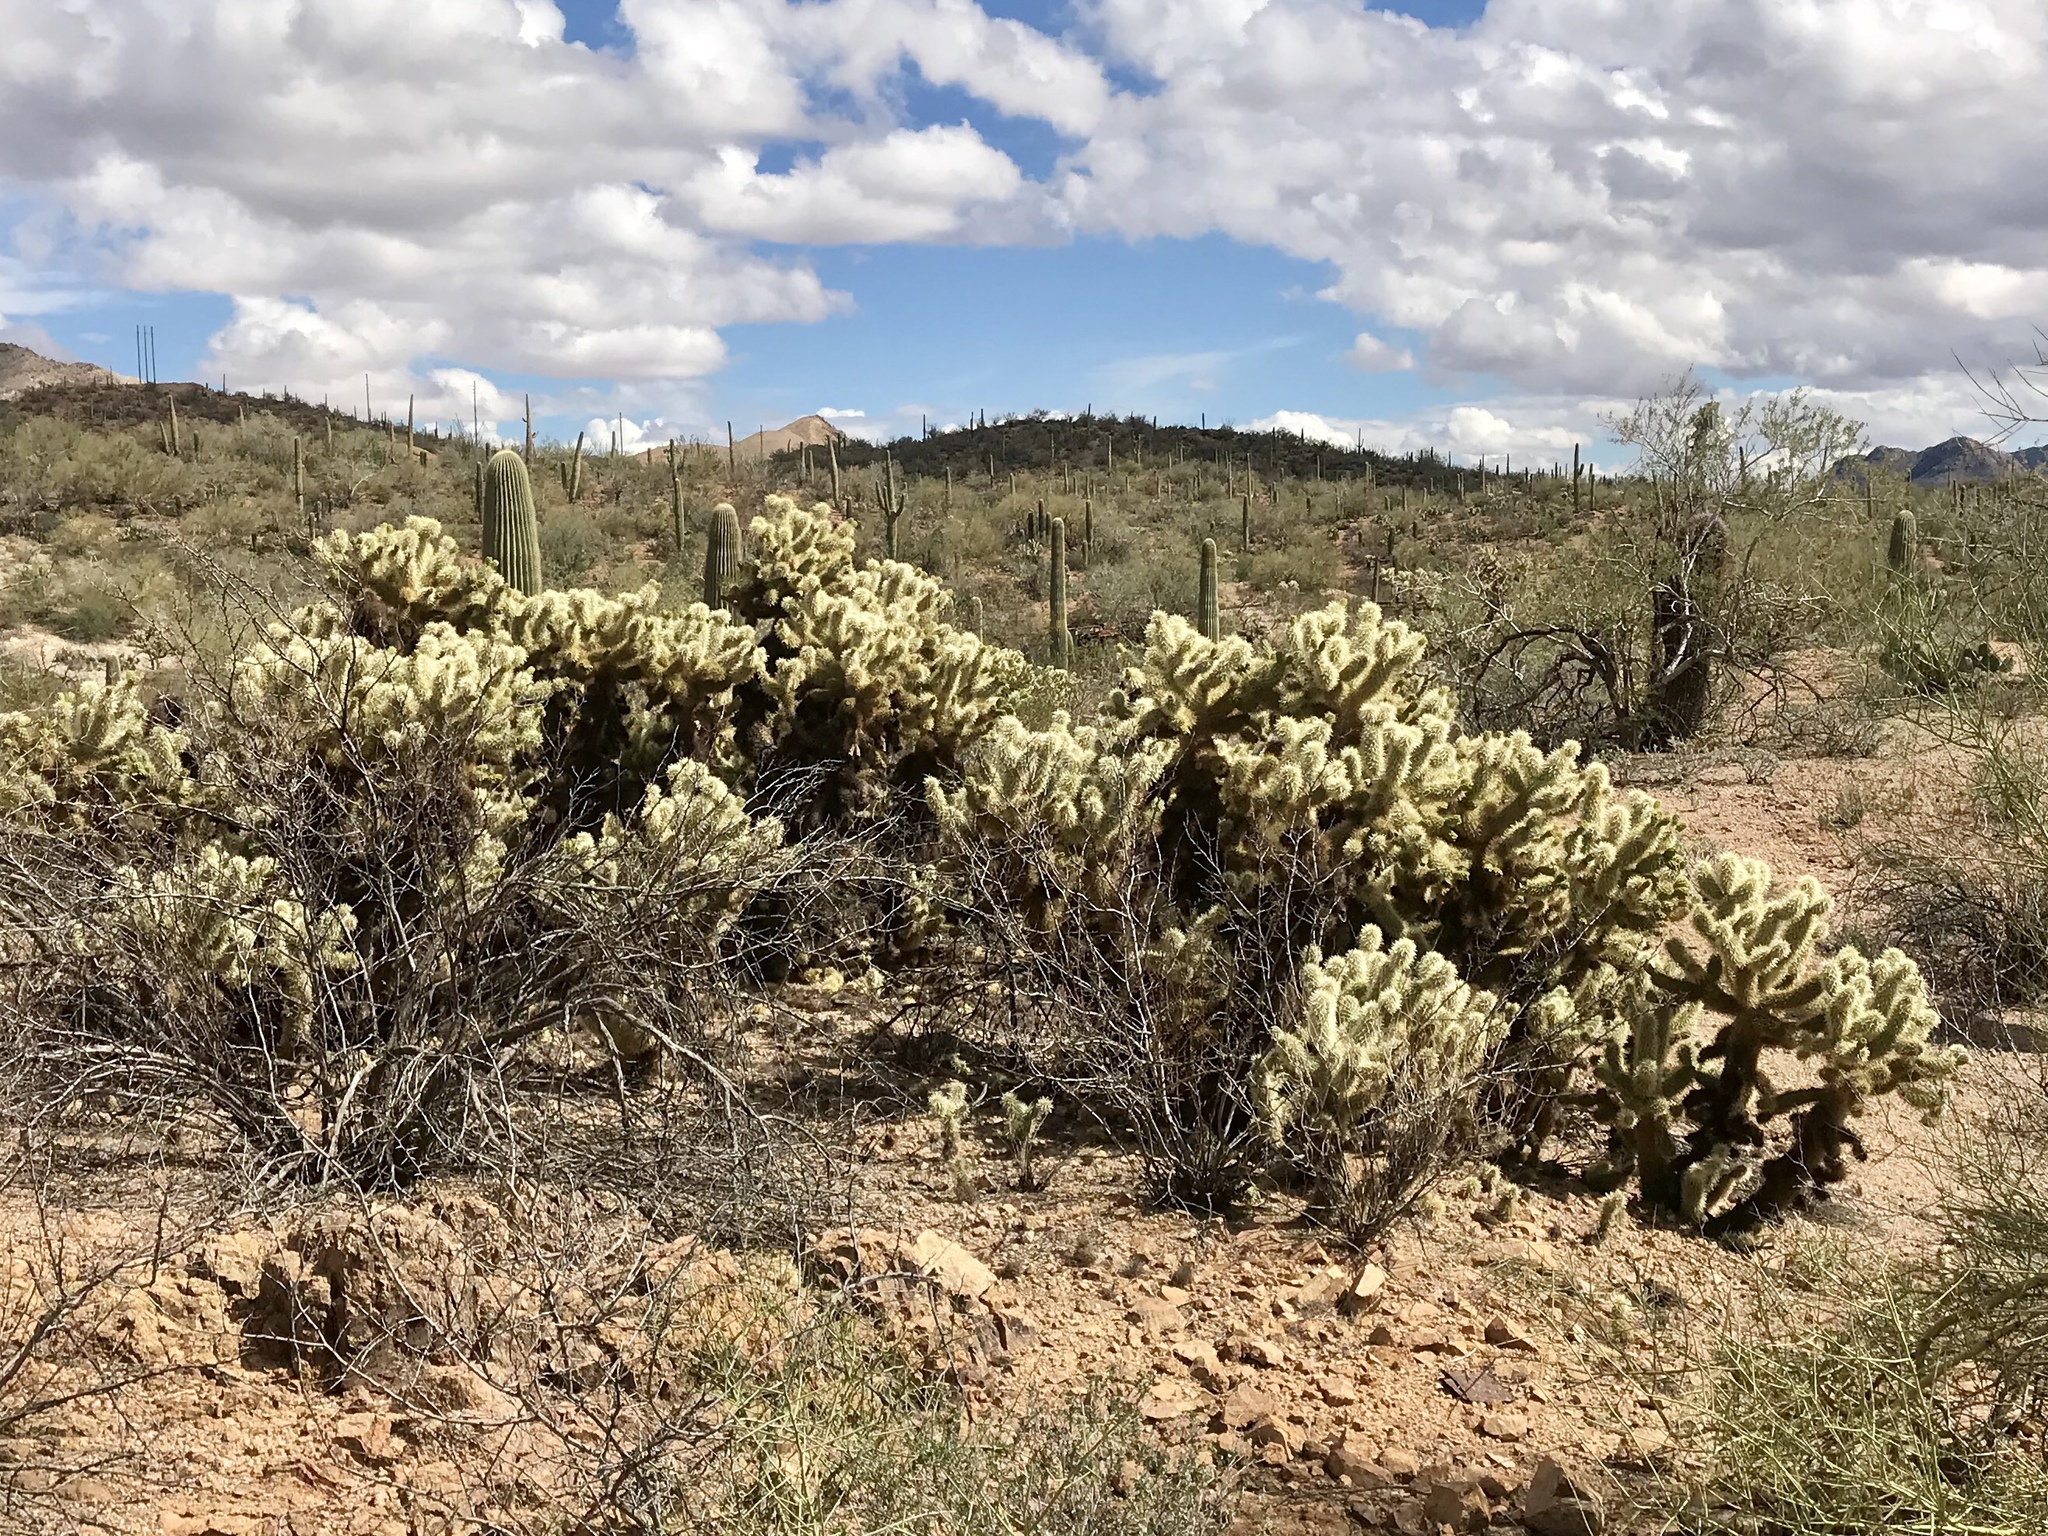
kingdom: Plantae
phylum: Tracheophyta
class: Magnoliopsida
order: Caryophyllales
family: Cactaceae
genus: Cylindropuntia
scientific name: Cylindropuntia fosbergii
